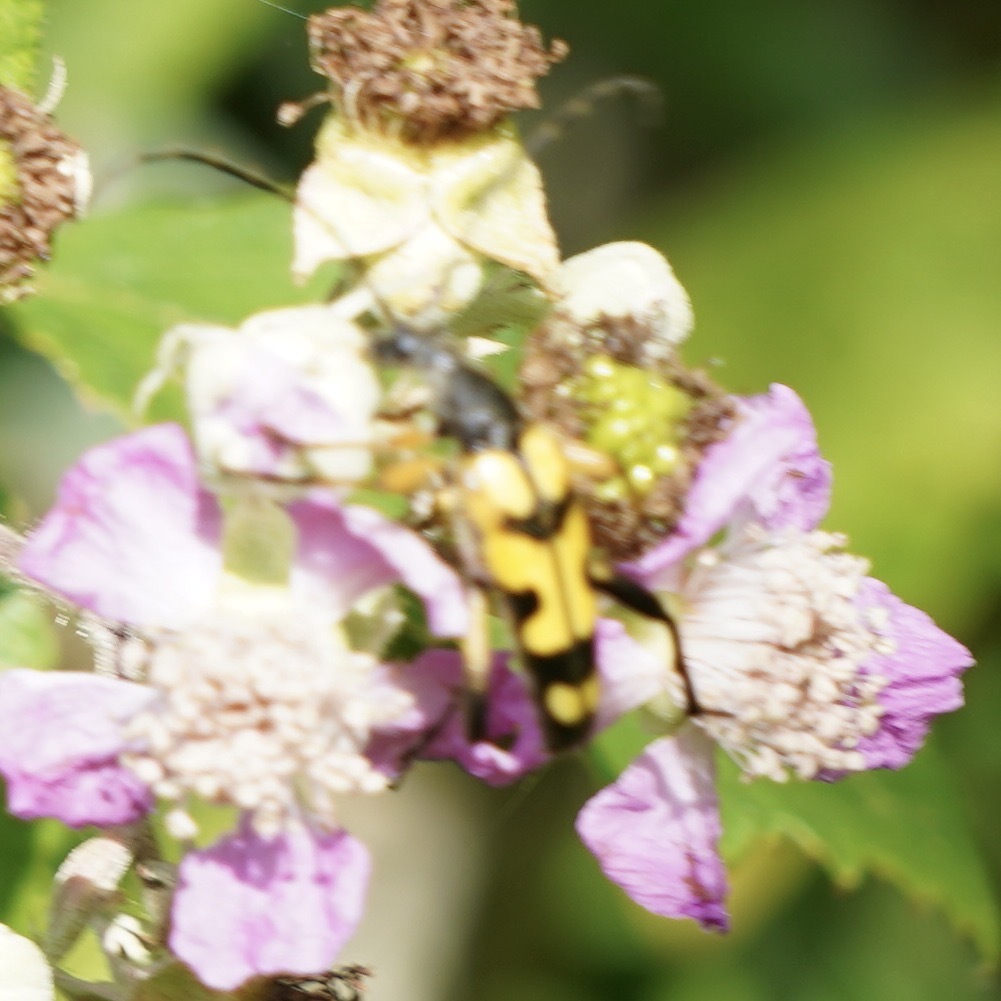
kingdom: Animalia
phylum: Arthropoda
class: Insecta
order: Coleoptera
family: Cerambycidae
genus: Rutpela
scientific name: Rutpela maculata
